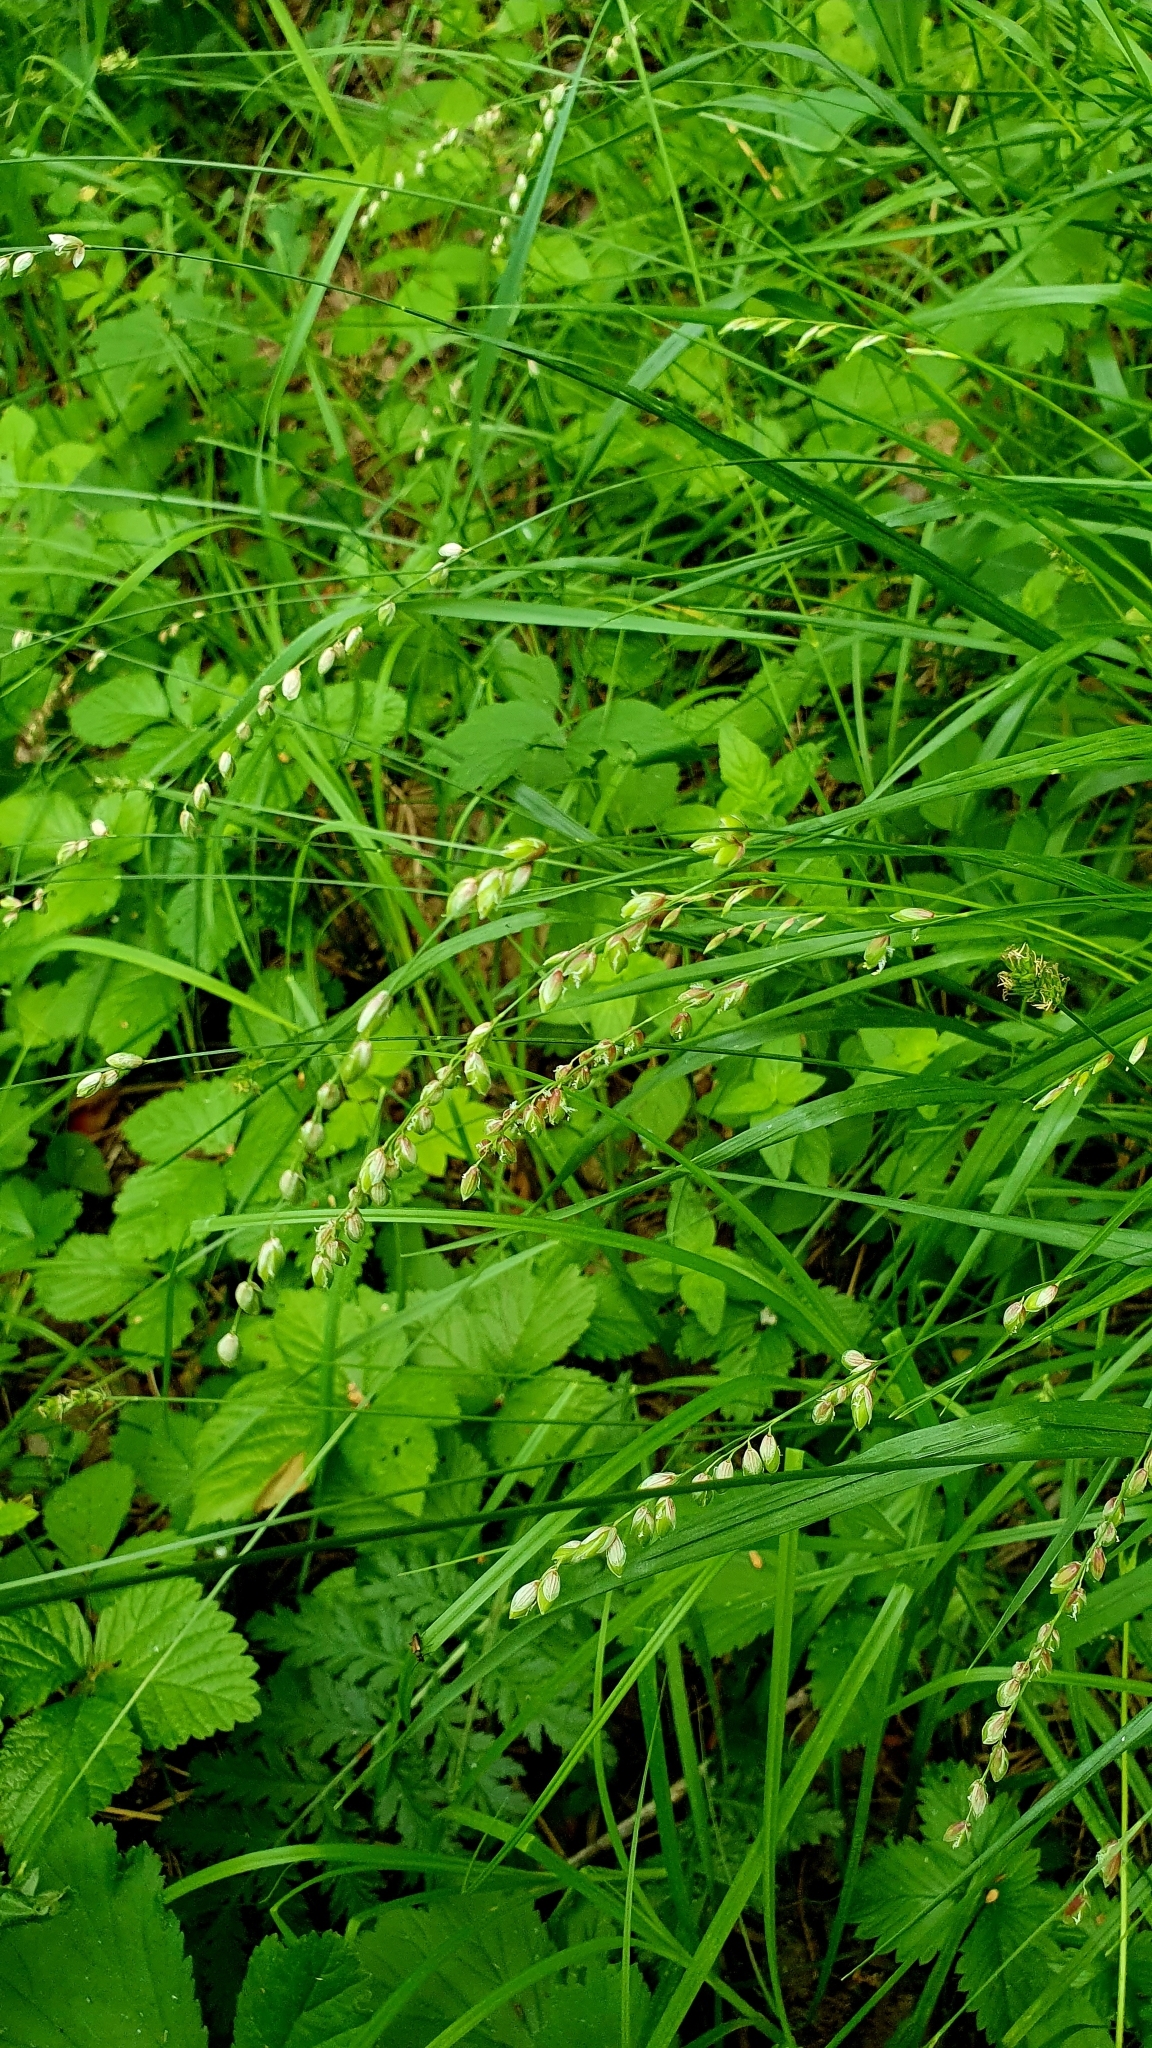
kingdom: Plantae
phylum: Tracheophyta
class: Liliopsida
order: Poales
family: Poaceae
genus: Melica
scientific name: Melica nutans
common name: Mountain melick
